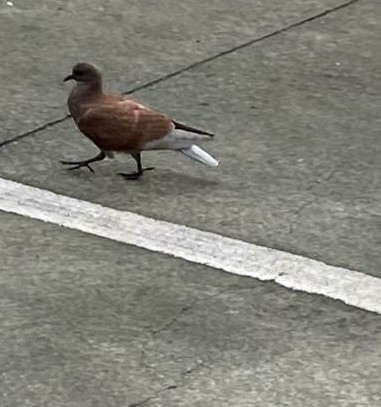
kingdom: Animalia
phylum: Chordata
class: Aves
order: Columbiformes
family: Columbidae
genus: Columba
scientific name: Columba livia
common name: Rock pigeon
